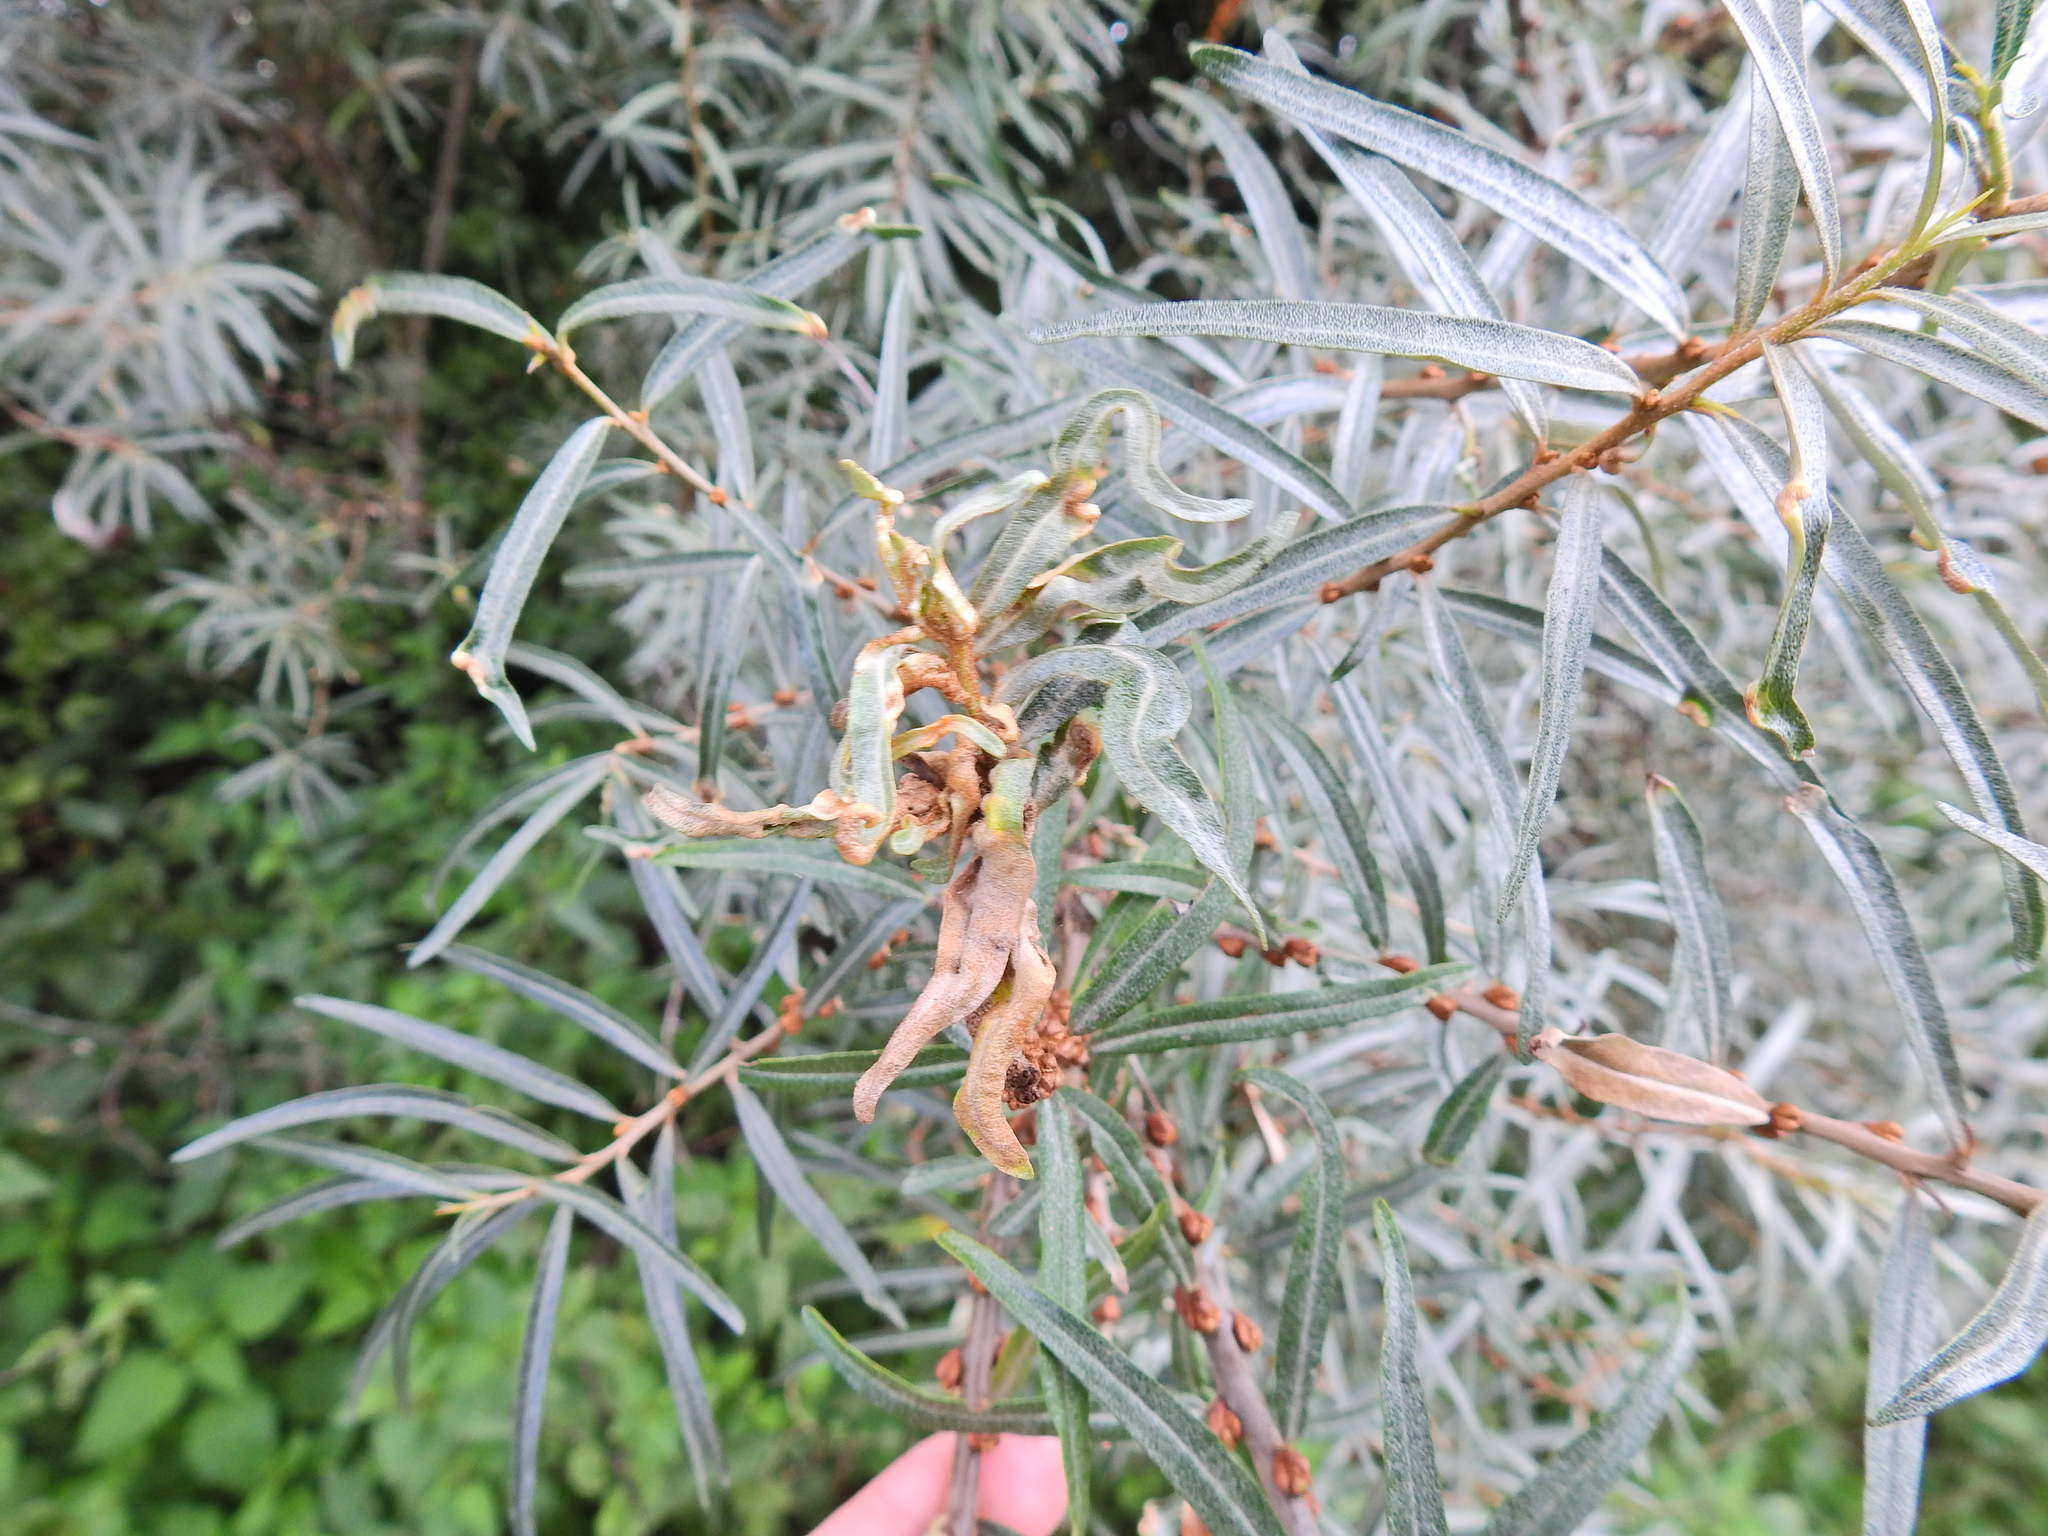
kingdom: Animalia
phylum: Arthropoda
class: Arachnida
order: Trombidiformes
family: Eriophyidae
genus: Aceria
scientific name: Aceria hippophaena
